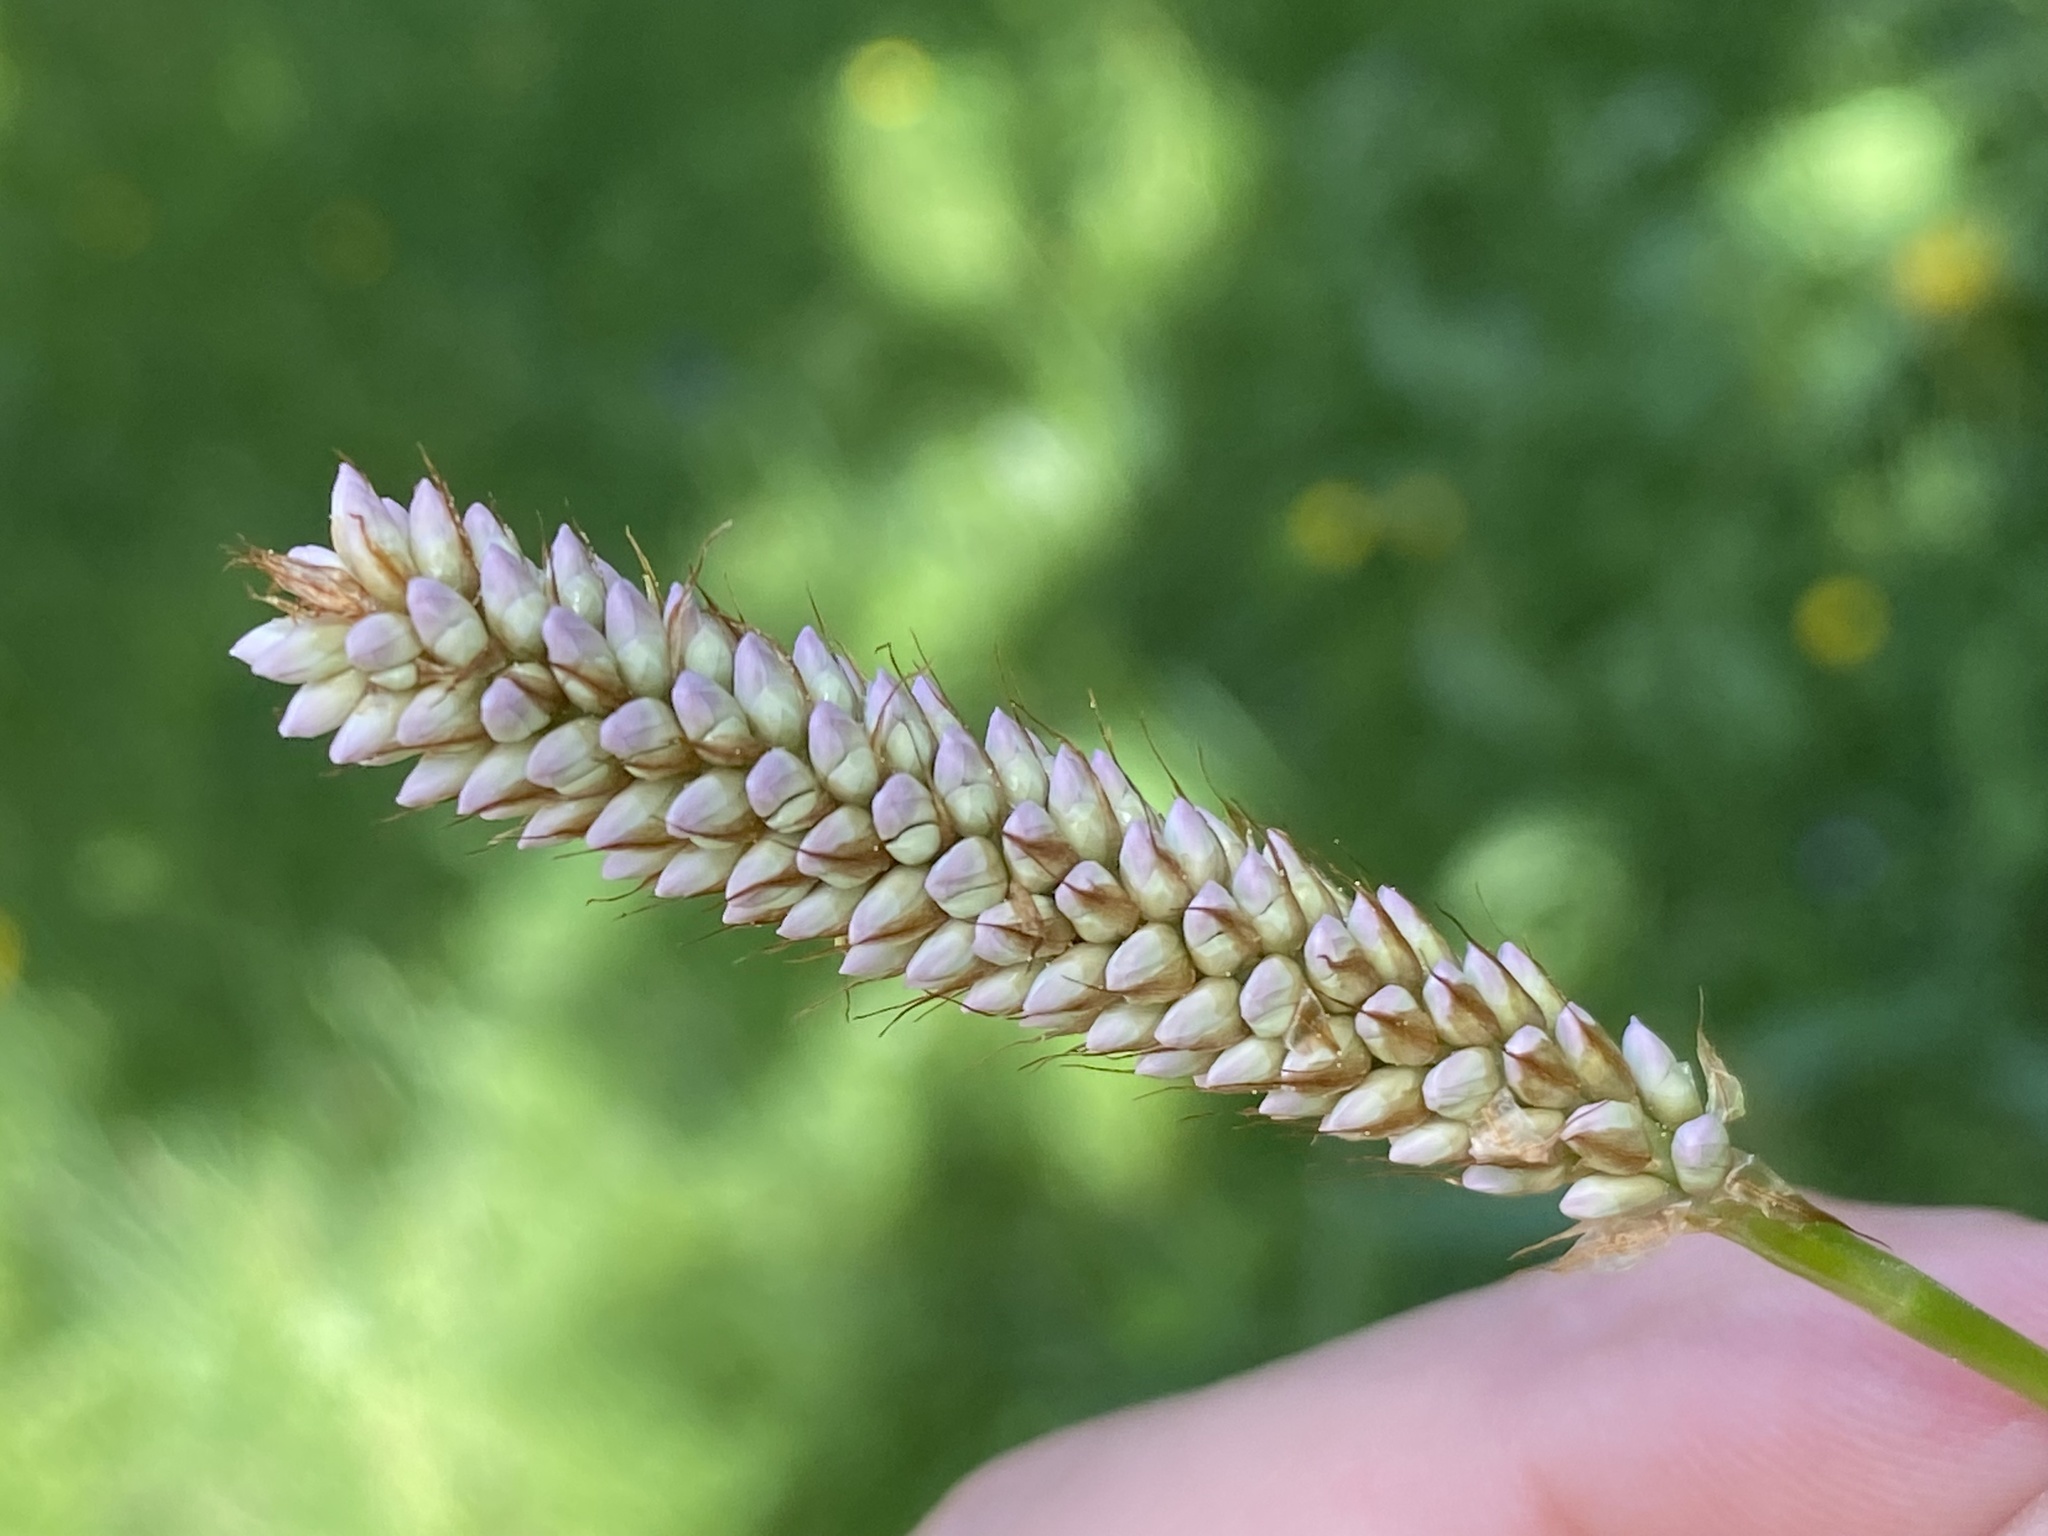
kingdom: Plantae
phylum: Tracheophyta
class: Magnoliopsida
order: Caryophyllales
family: Polygonaceae
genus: Bistorta
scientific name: Bistorta officinalis
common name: Common bistort
